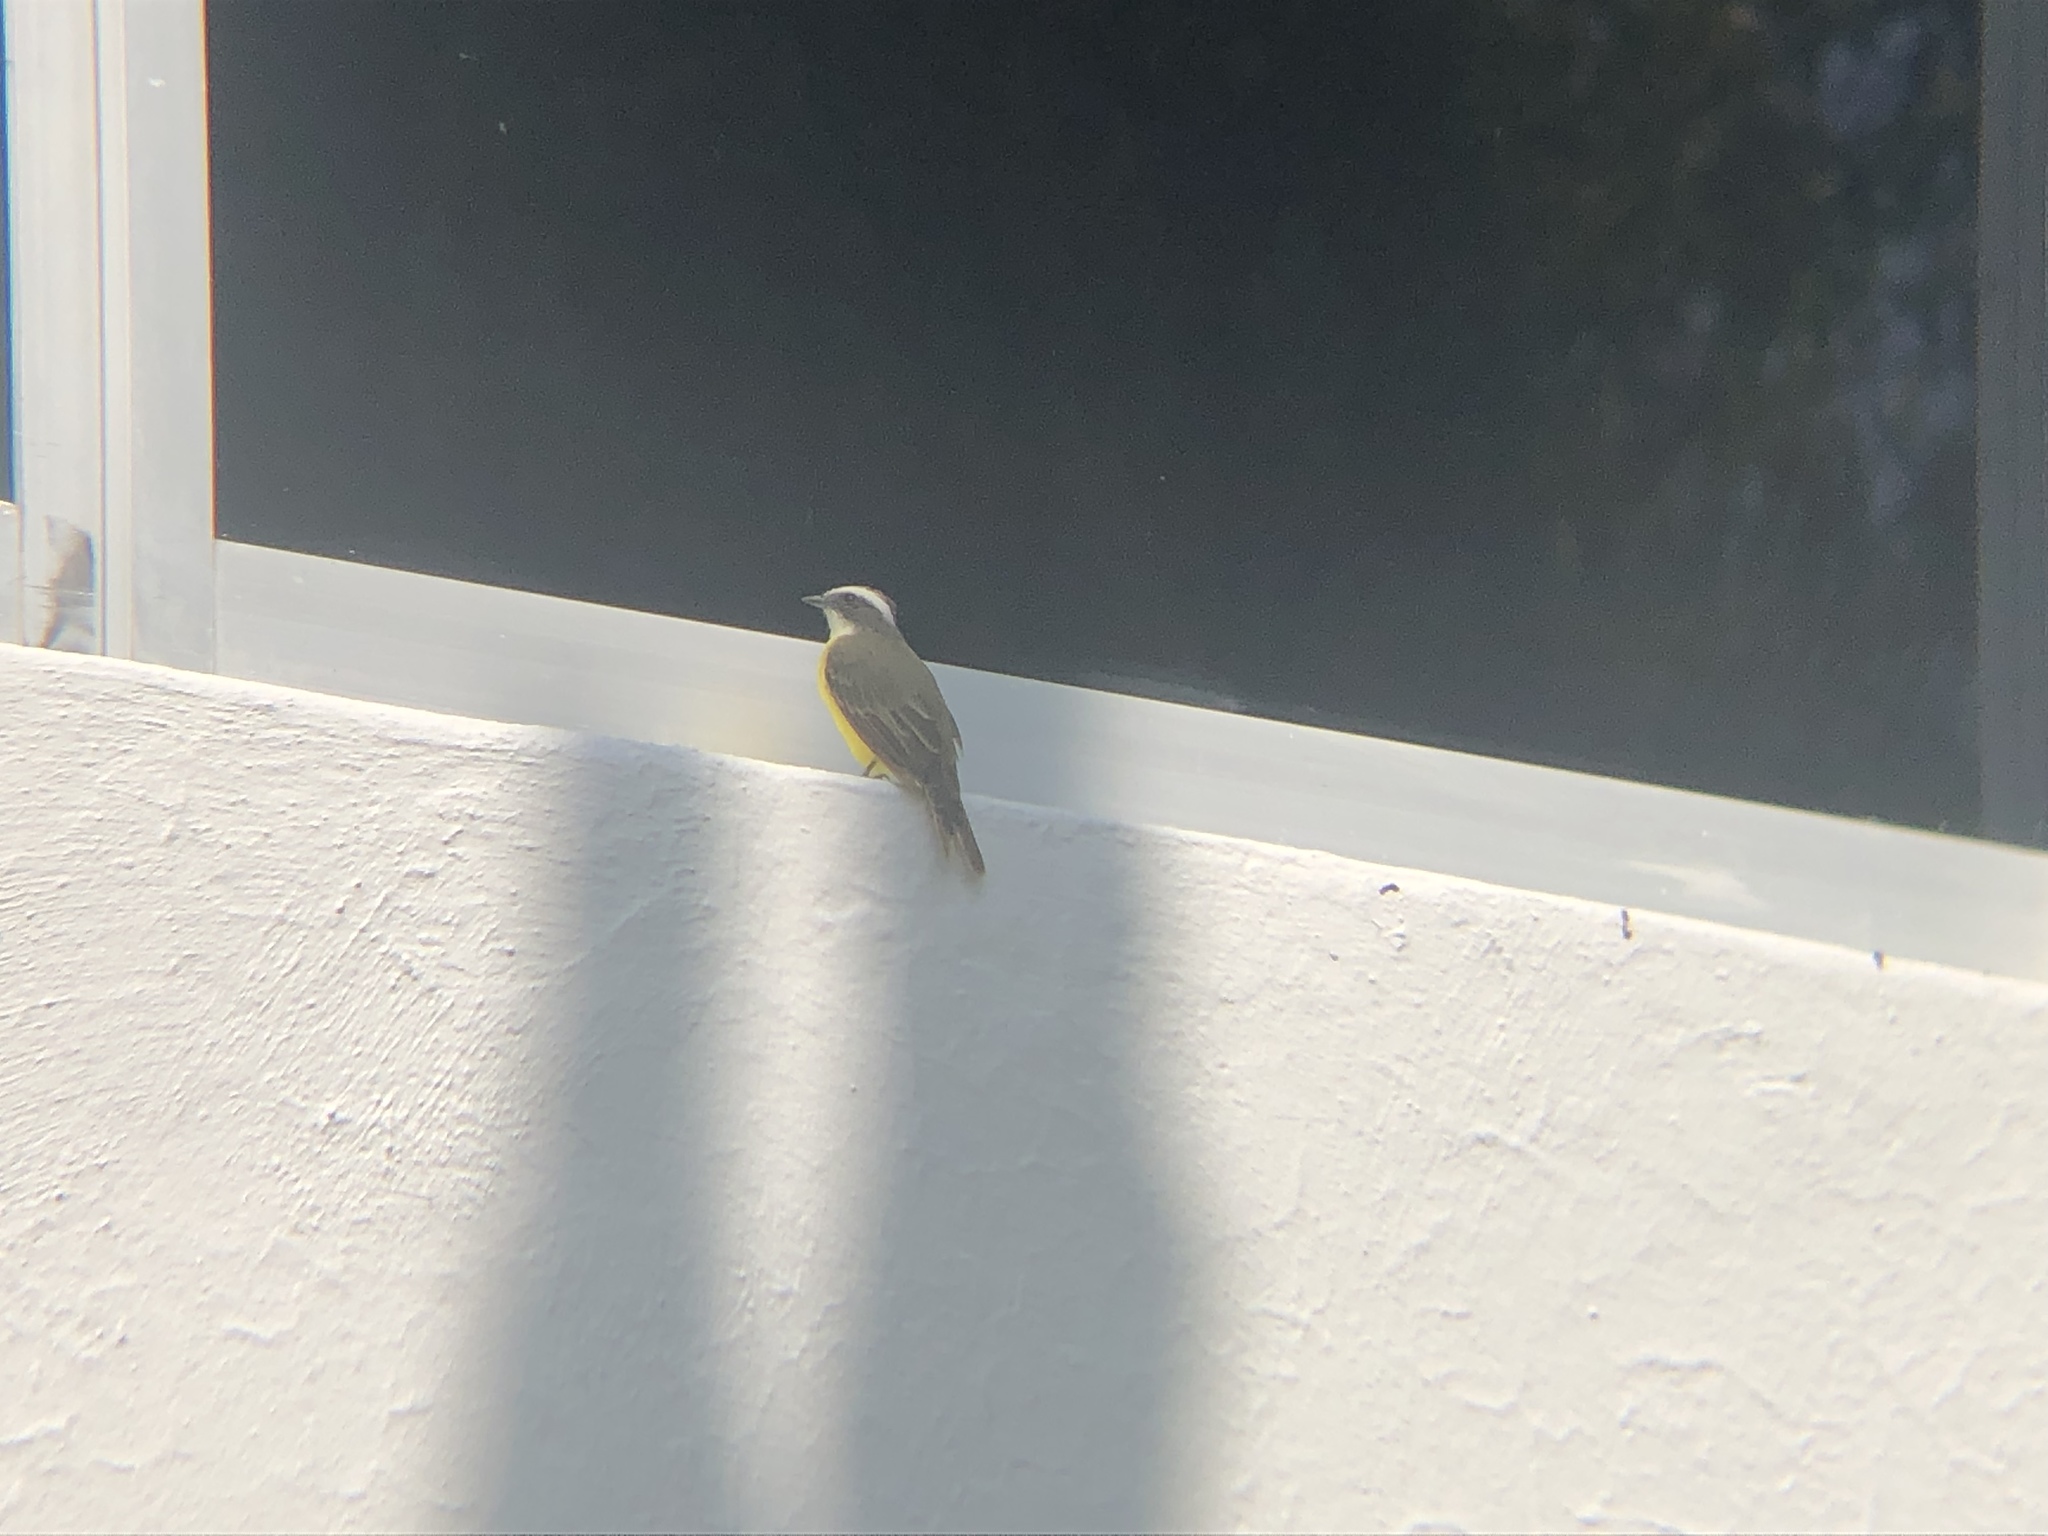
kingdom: Animalia
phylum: Chordata
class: Aves
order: Passeriformes
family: Tyrannidae
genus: Myiozetetes
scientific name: Myiozetetes similis
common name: Social flycatcher
